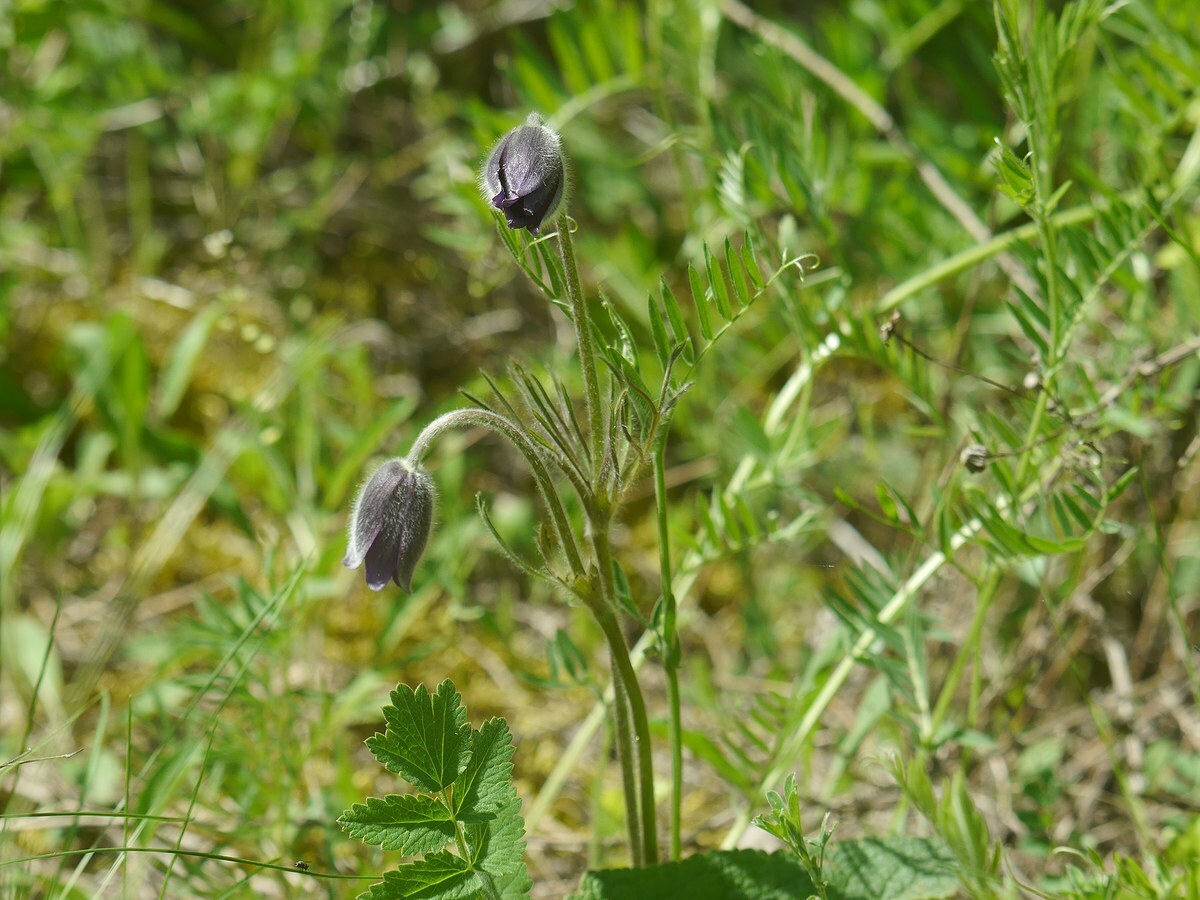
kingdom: Plantae
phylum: Tracheophyta
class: Magnoliopsida
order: Ranunculales
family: Ranunculaceae
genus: Pulsatilla
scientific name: Pulsatilla pratensis
